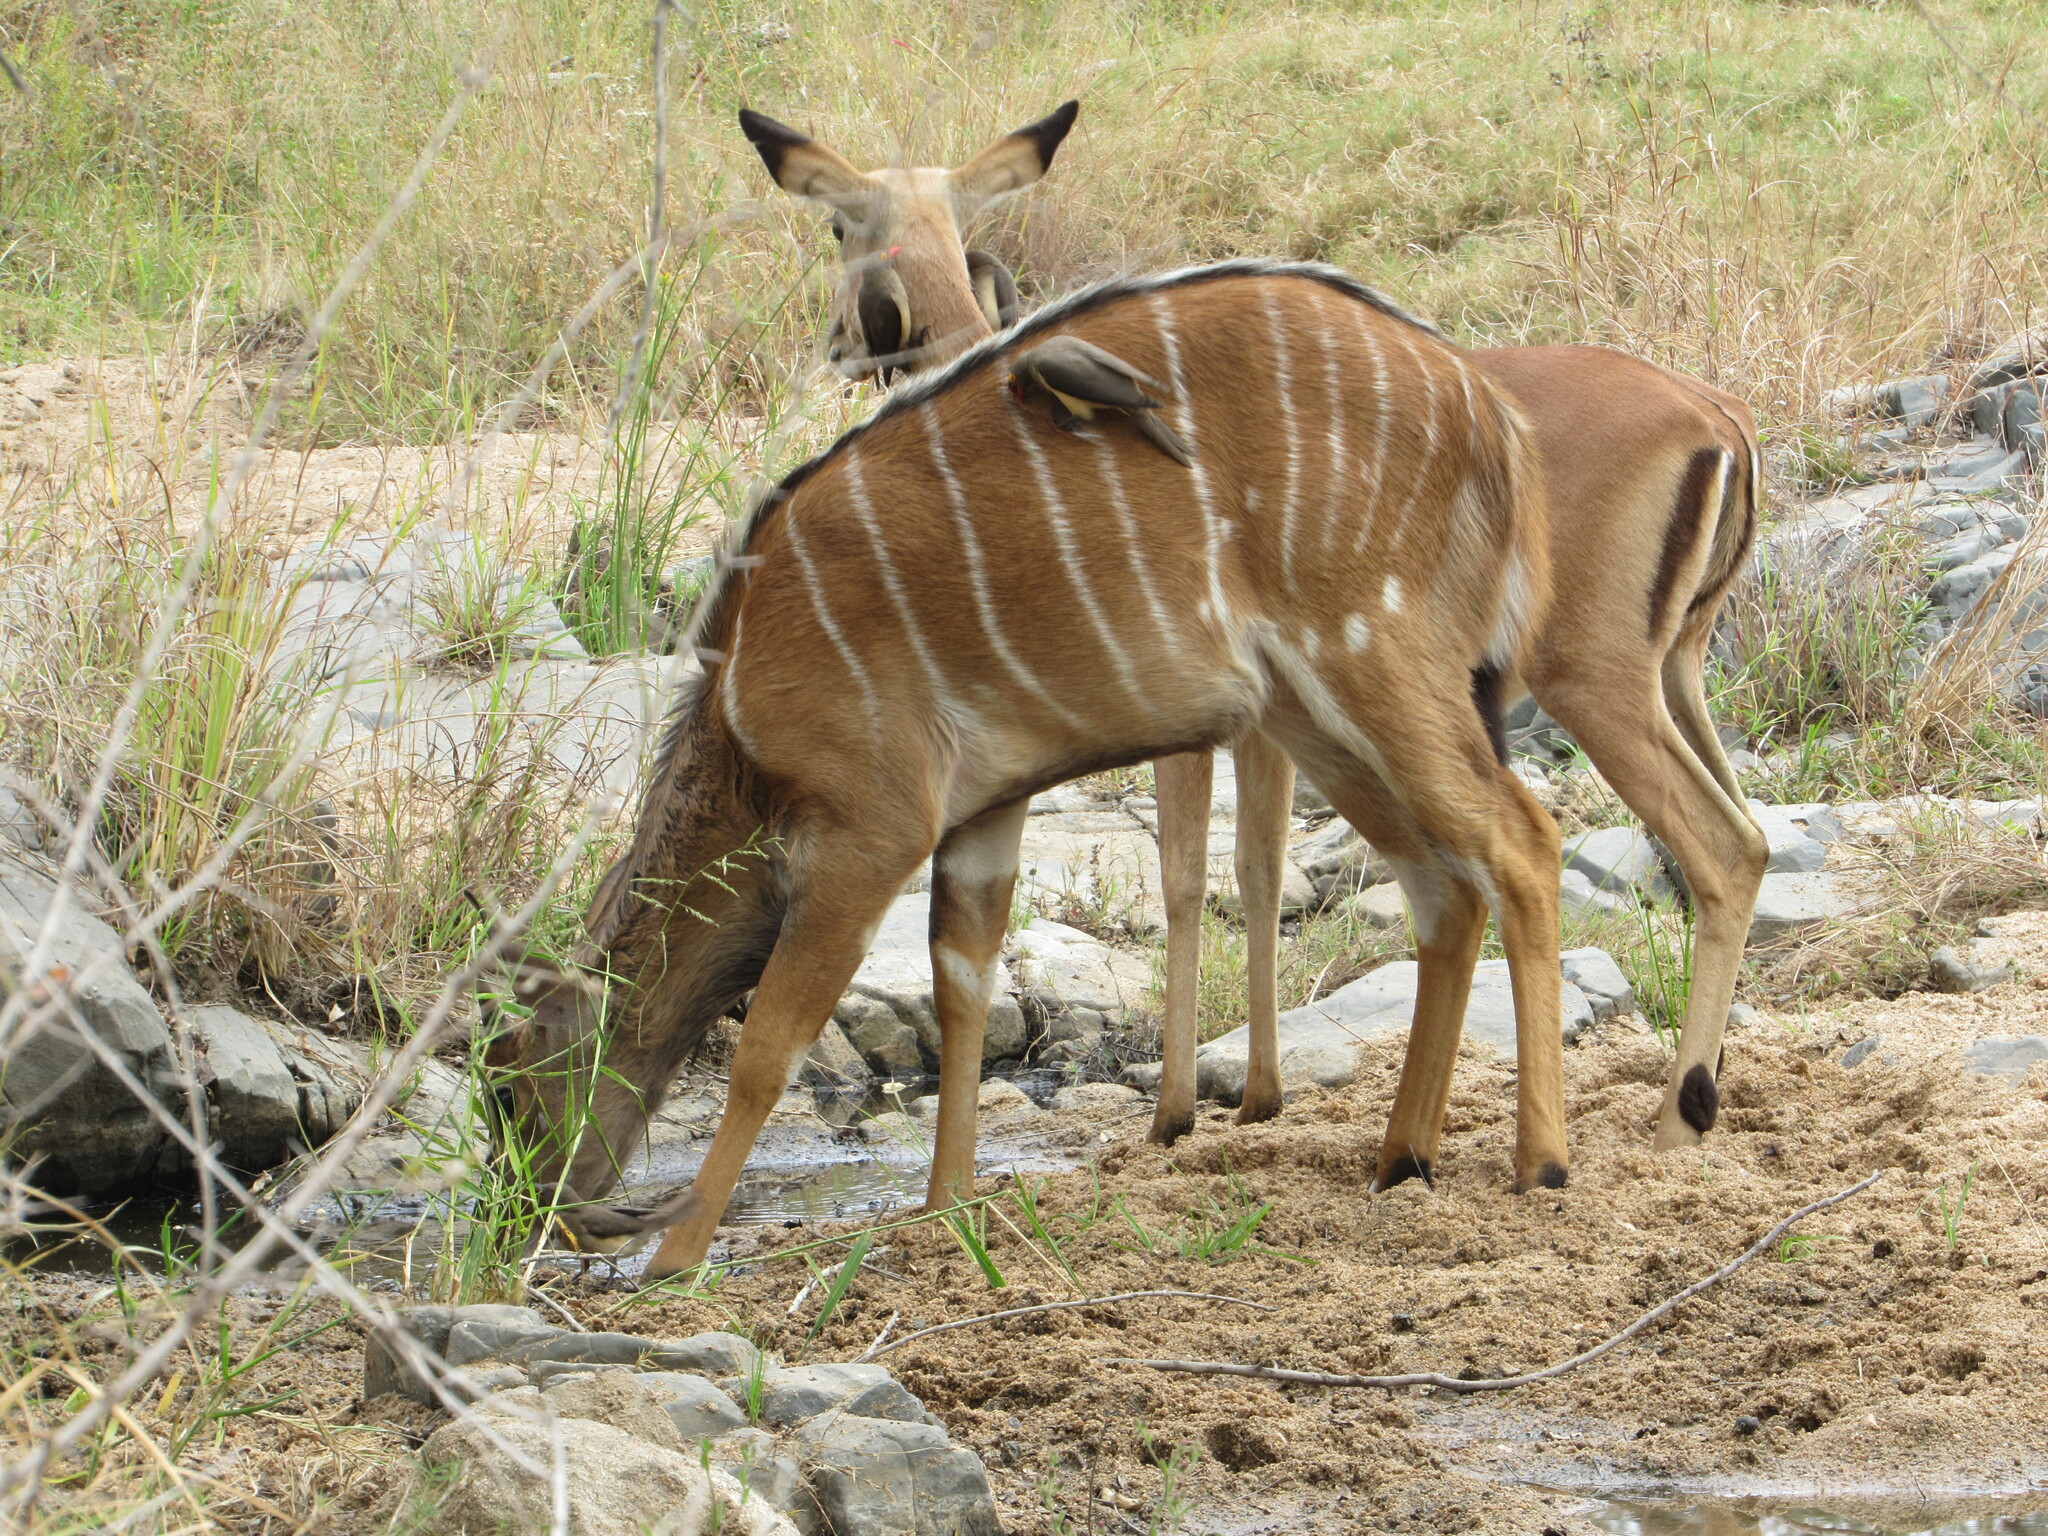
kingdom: Animalia
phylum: Chordata
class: Mammalia
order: Artiodactyla
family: Bovidae
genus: Tragelaphus
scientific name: Tragelaphus angasii
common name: Nyala
